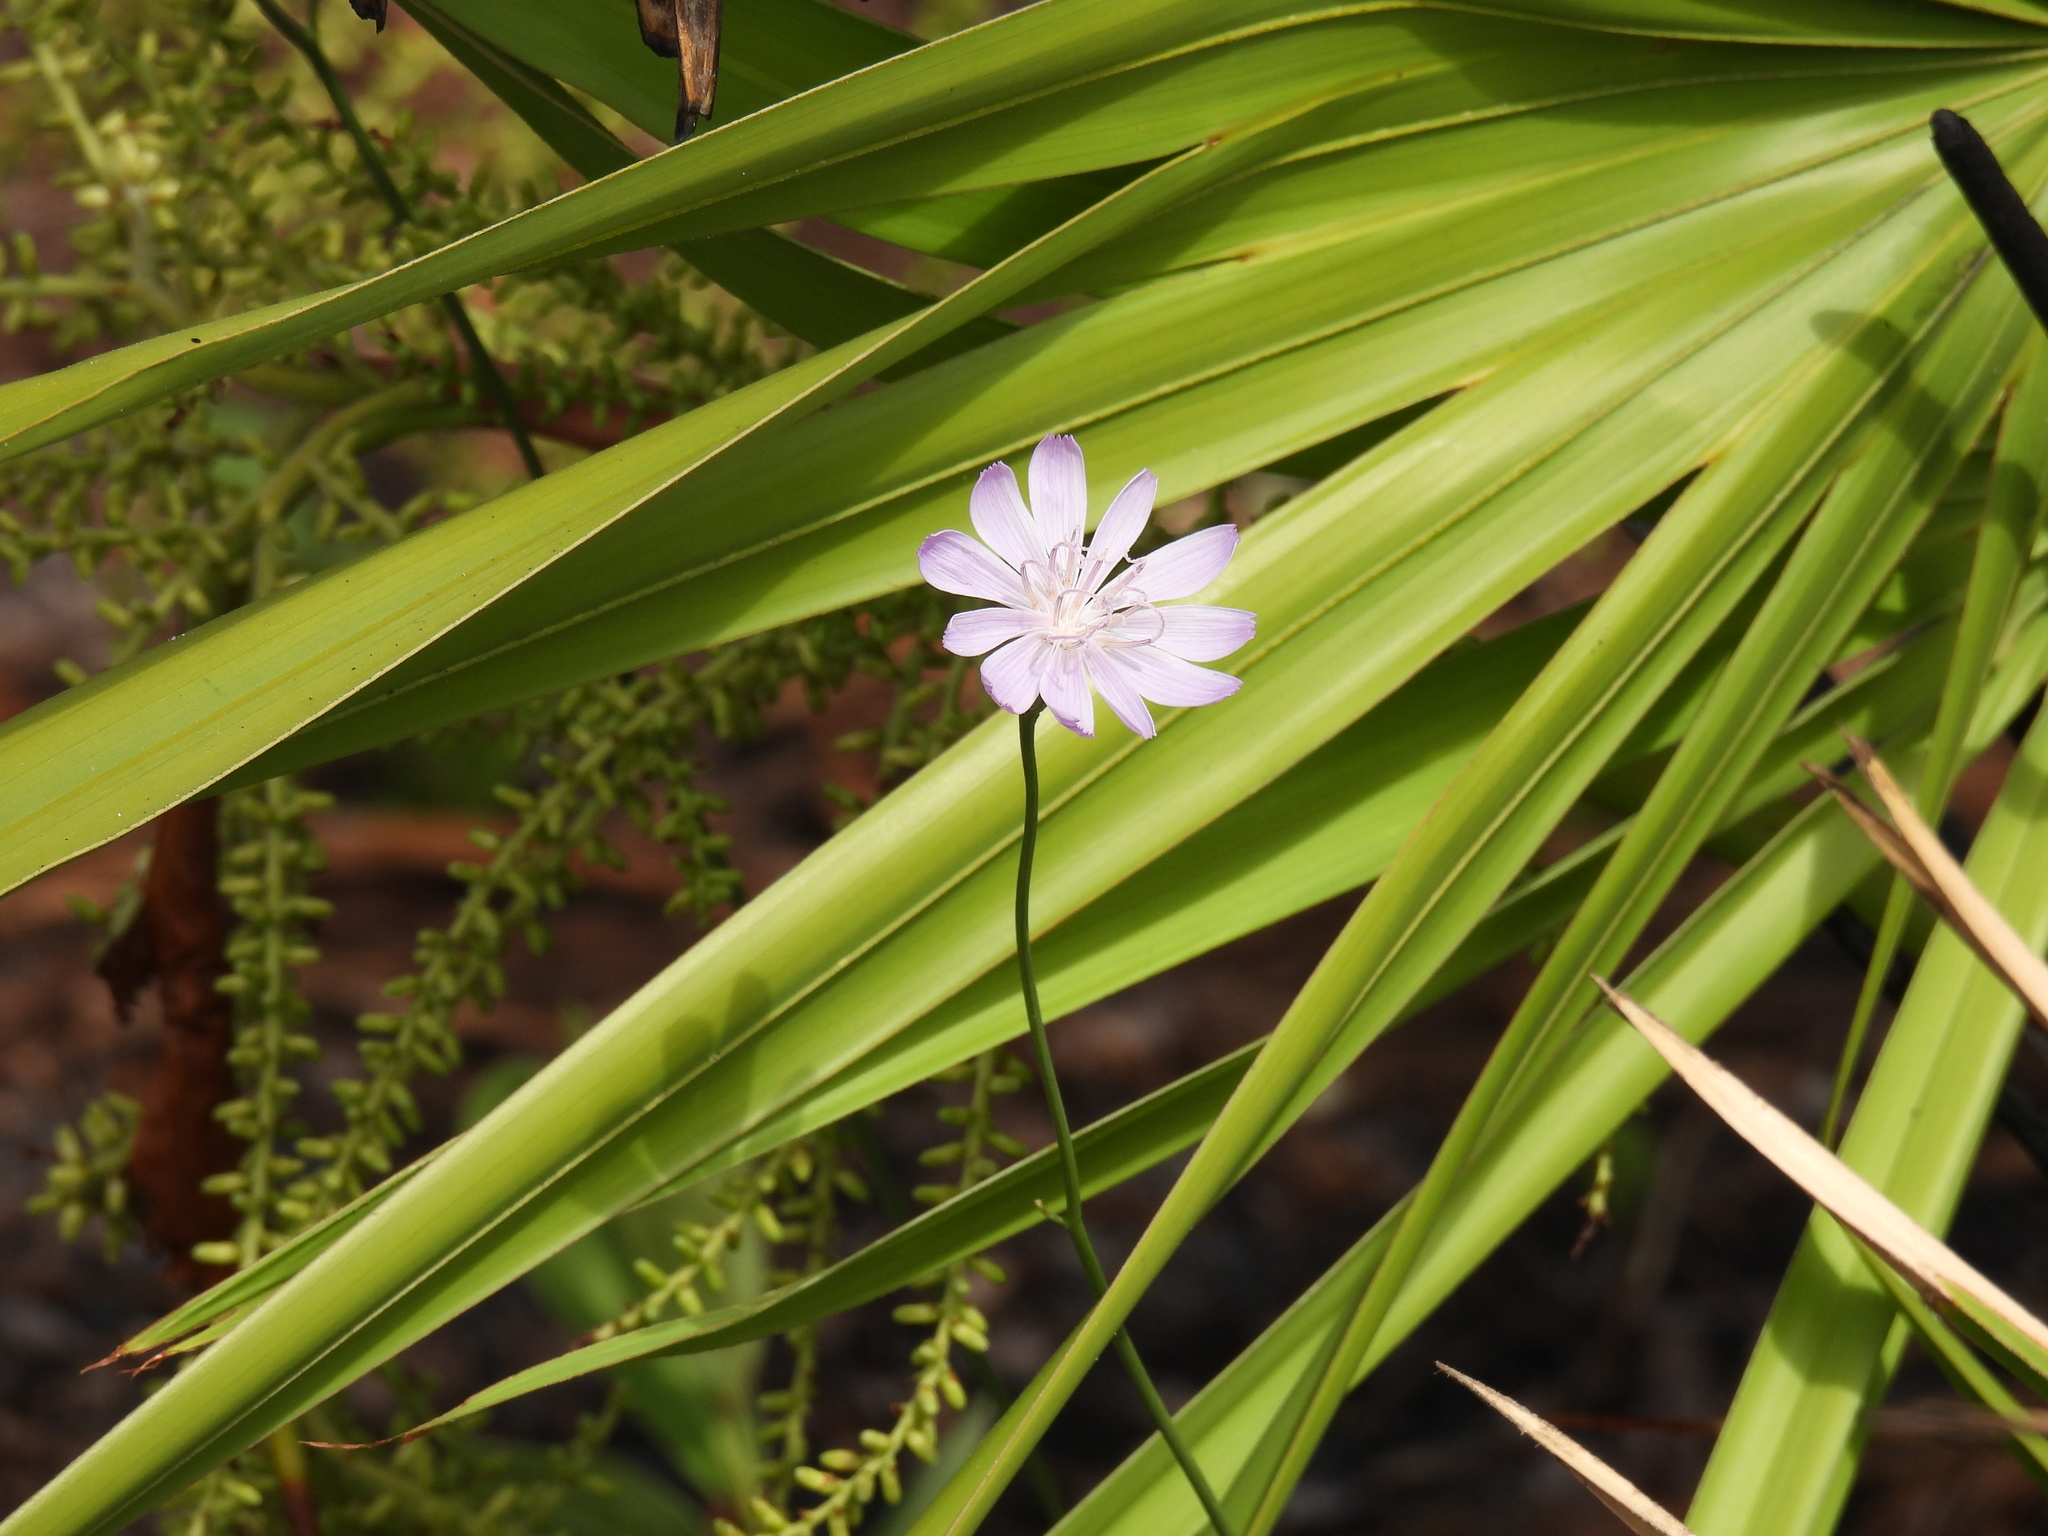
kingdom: Plantae
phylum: Tracheophyta
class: Magnoliopsida
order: Asterales
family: Asteraceae
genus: Lygodesmia
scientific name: Lygodesmia aphylla
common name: Rose-rush
